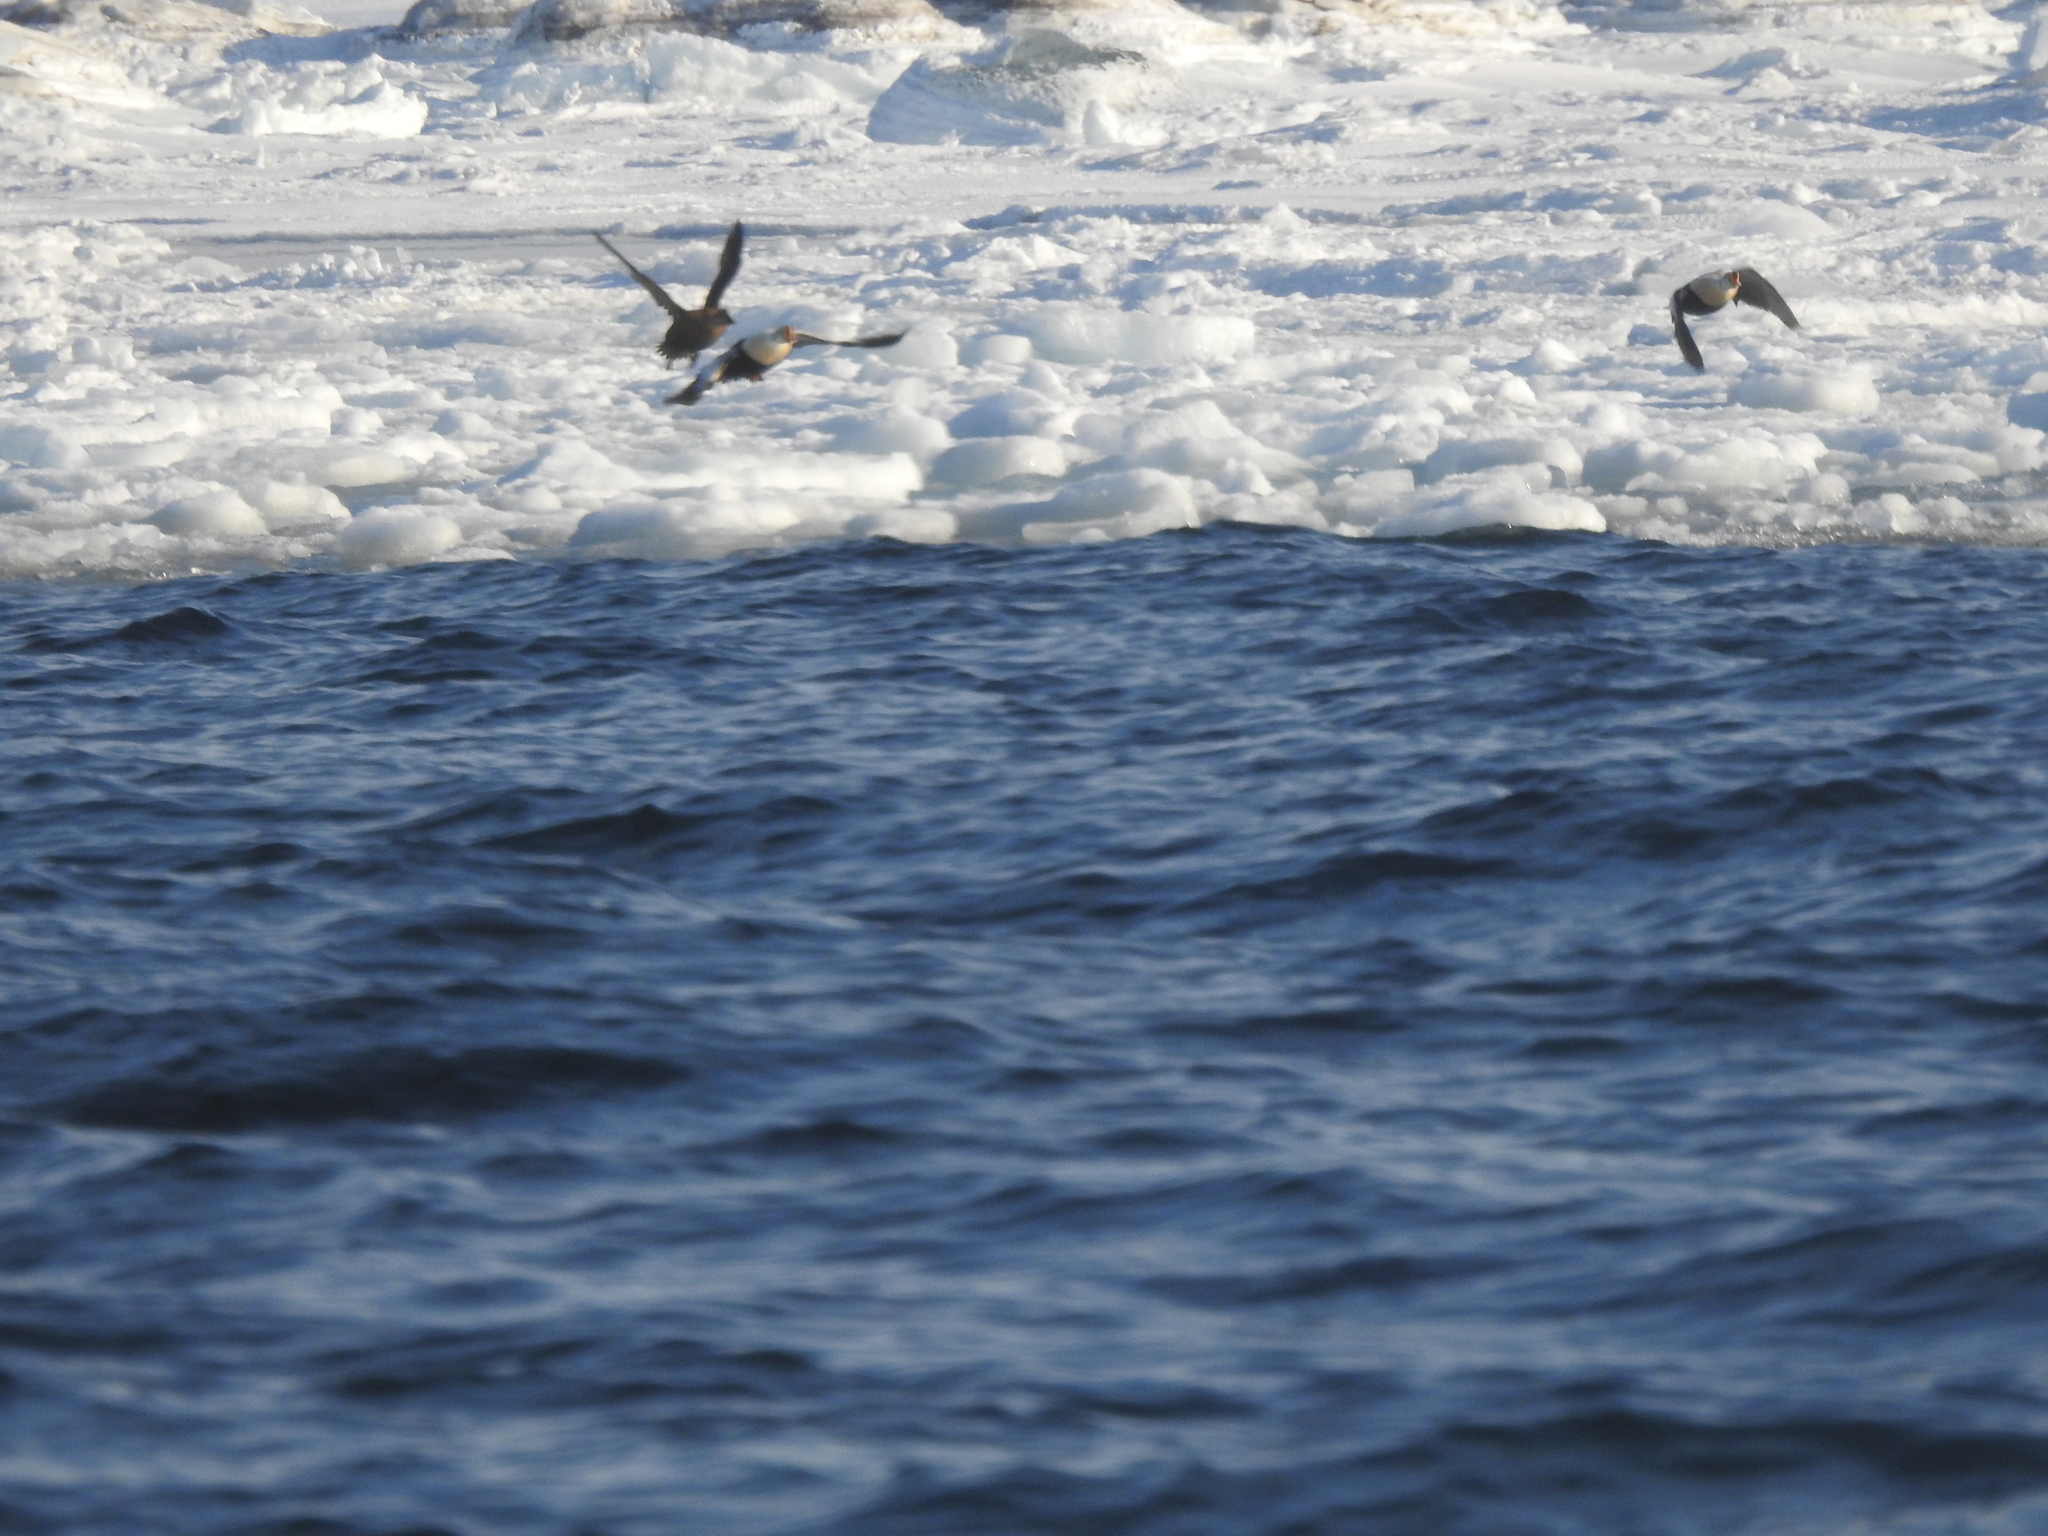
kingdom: Animalia
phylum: Chordata
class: Aves
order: Anseriformes
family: Anatidae
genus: Somateria
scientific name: Somateria spectabilis
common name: King eider
